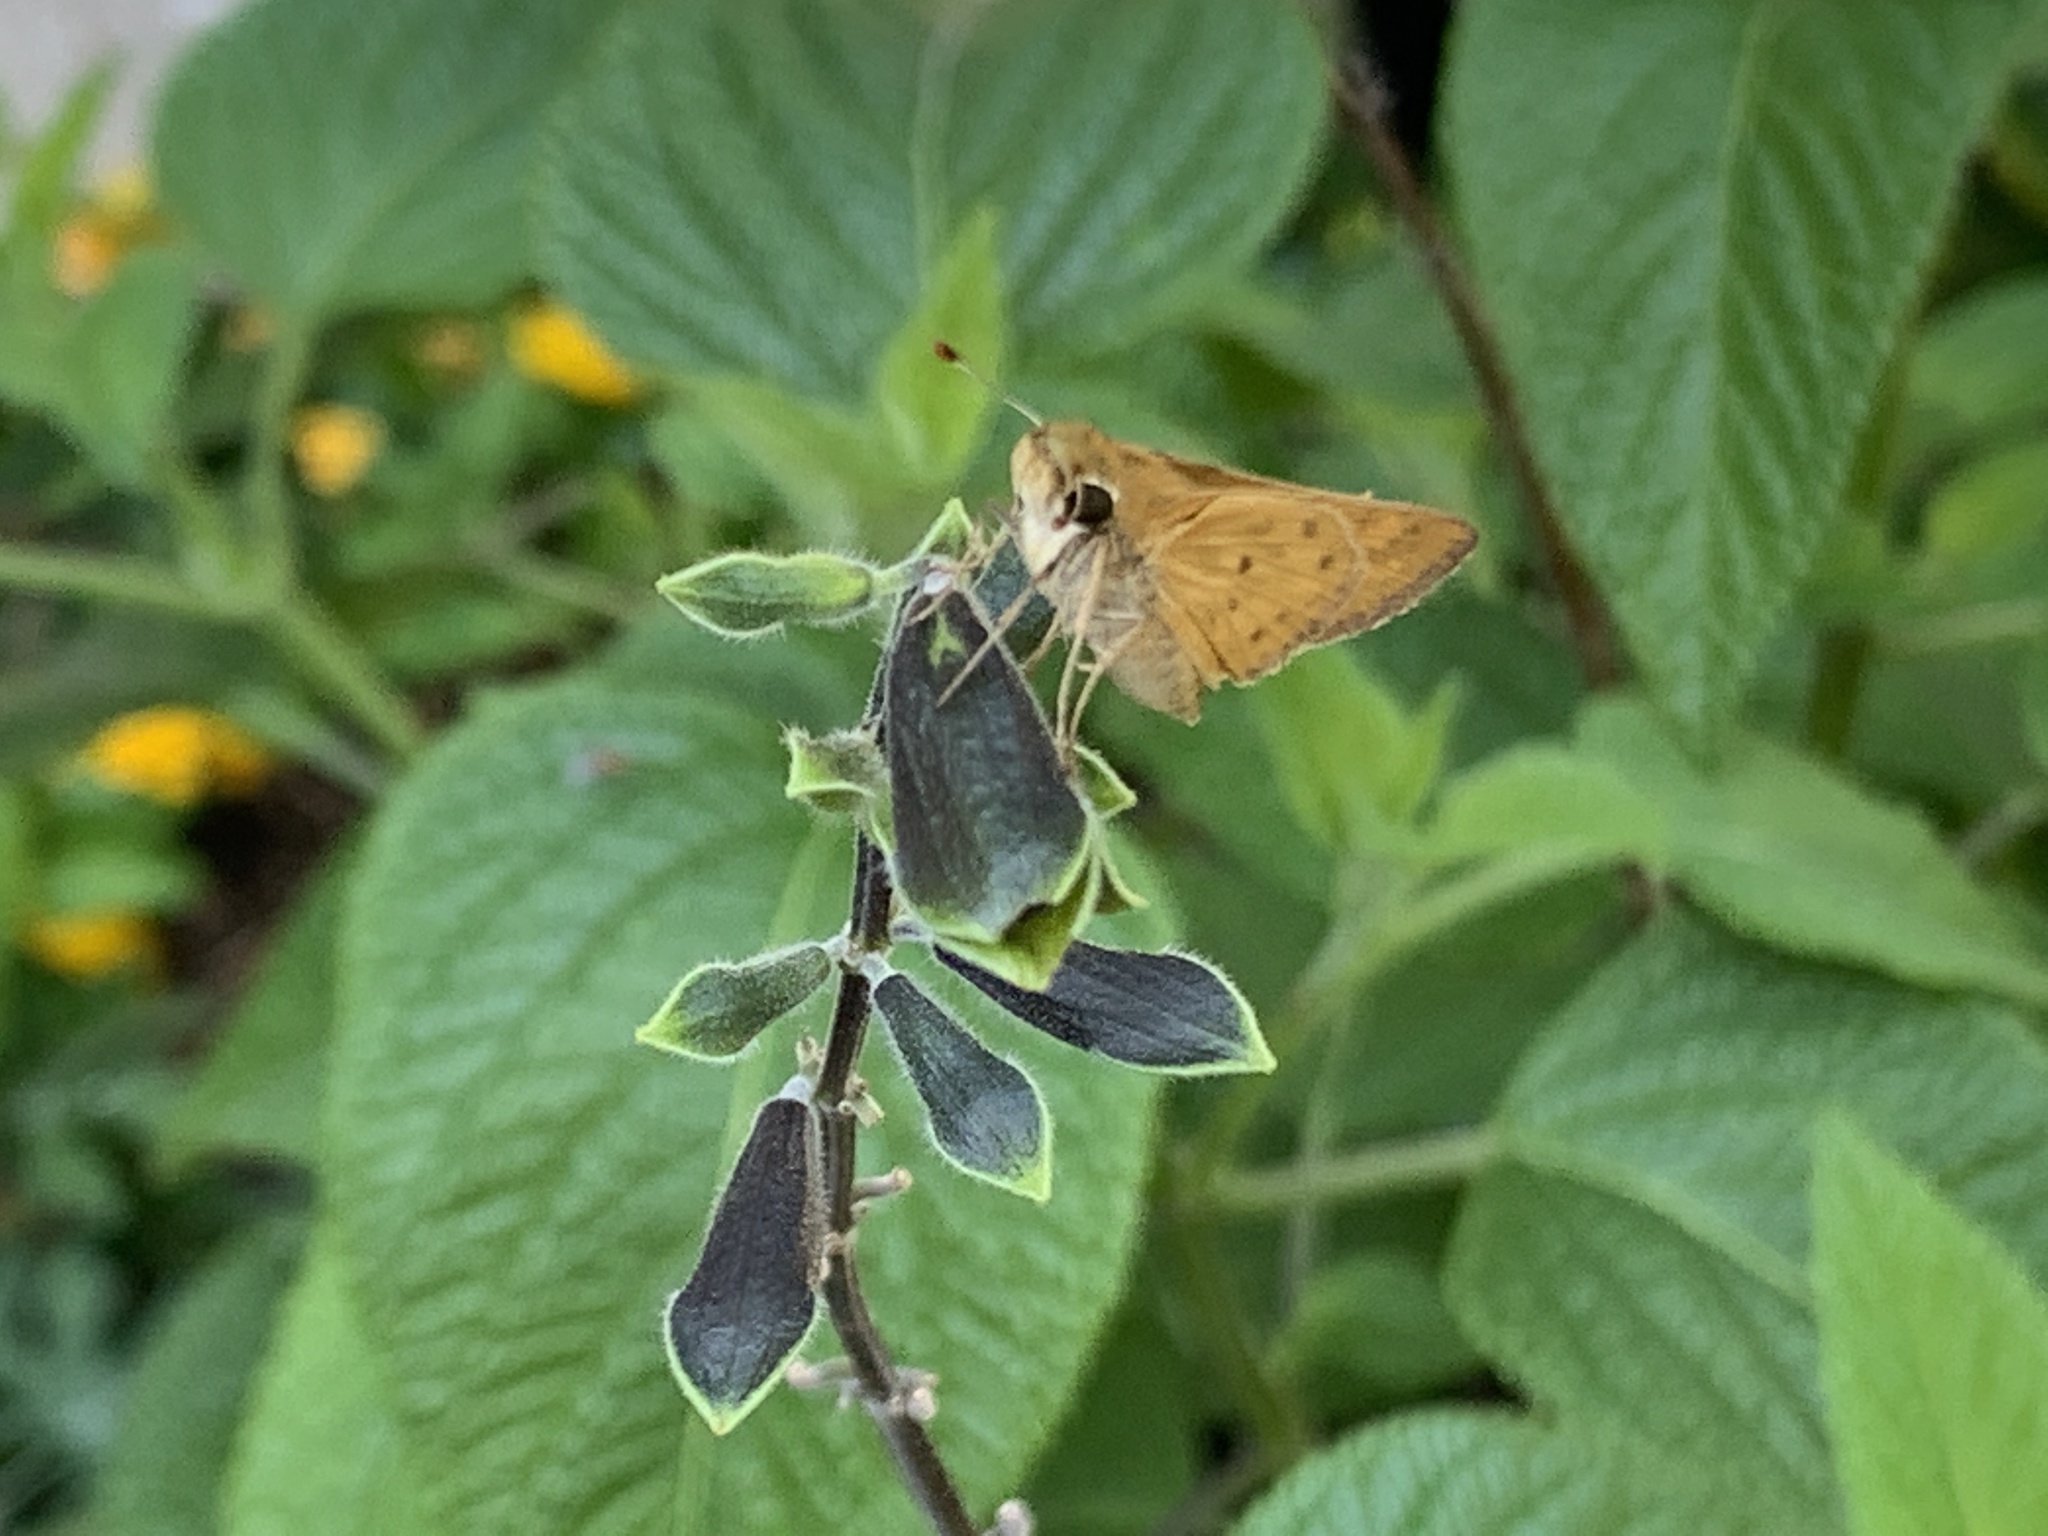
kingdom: Animalia
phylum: Arthropoda
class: Insecta
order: Lepidoptera
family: Hesperiidae
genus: Hylephila
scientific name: Hylephila phyleus
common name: Fiery skipper
